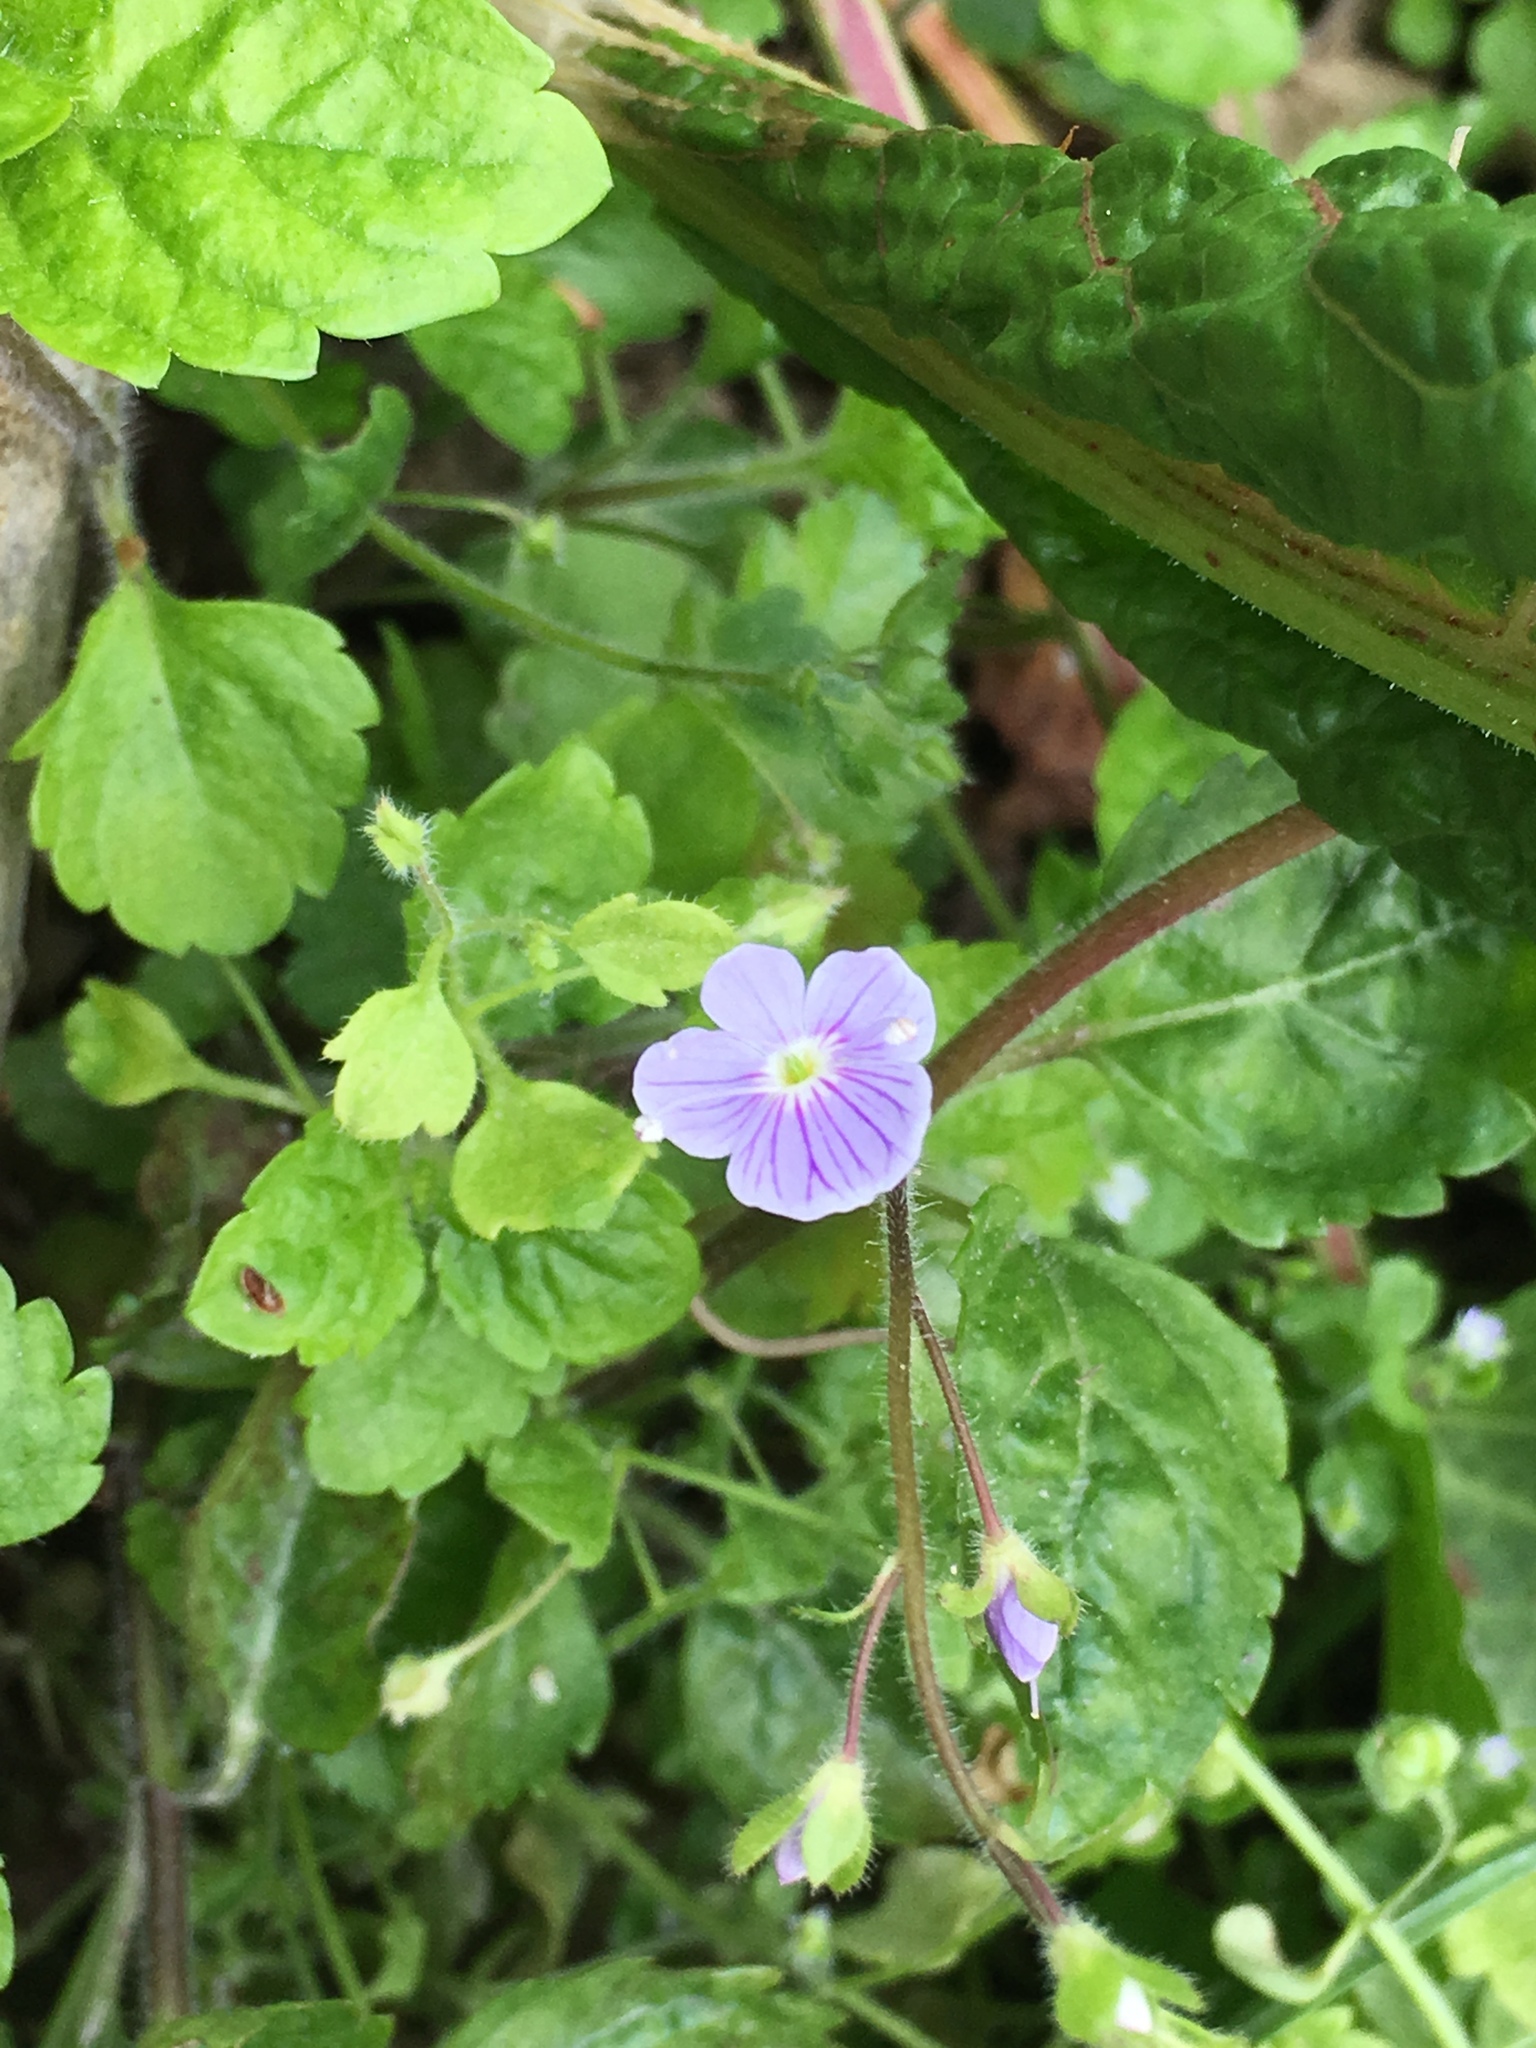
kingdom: Plantae
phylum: Tracheophyta
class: Magnoliopsida
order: Lamiales
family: Plantaginaceae
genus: Veronica
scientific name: Veronica montana
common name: Wood speedwell
